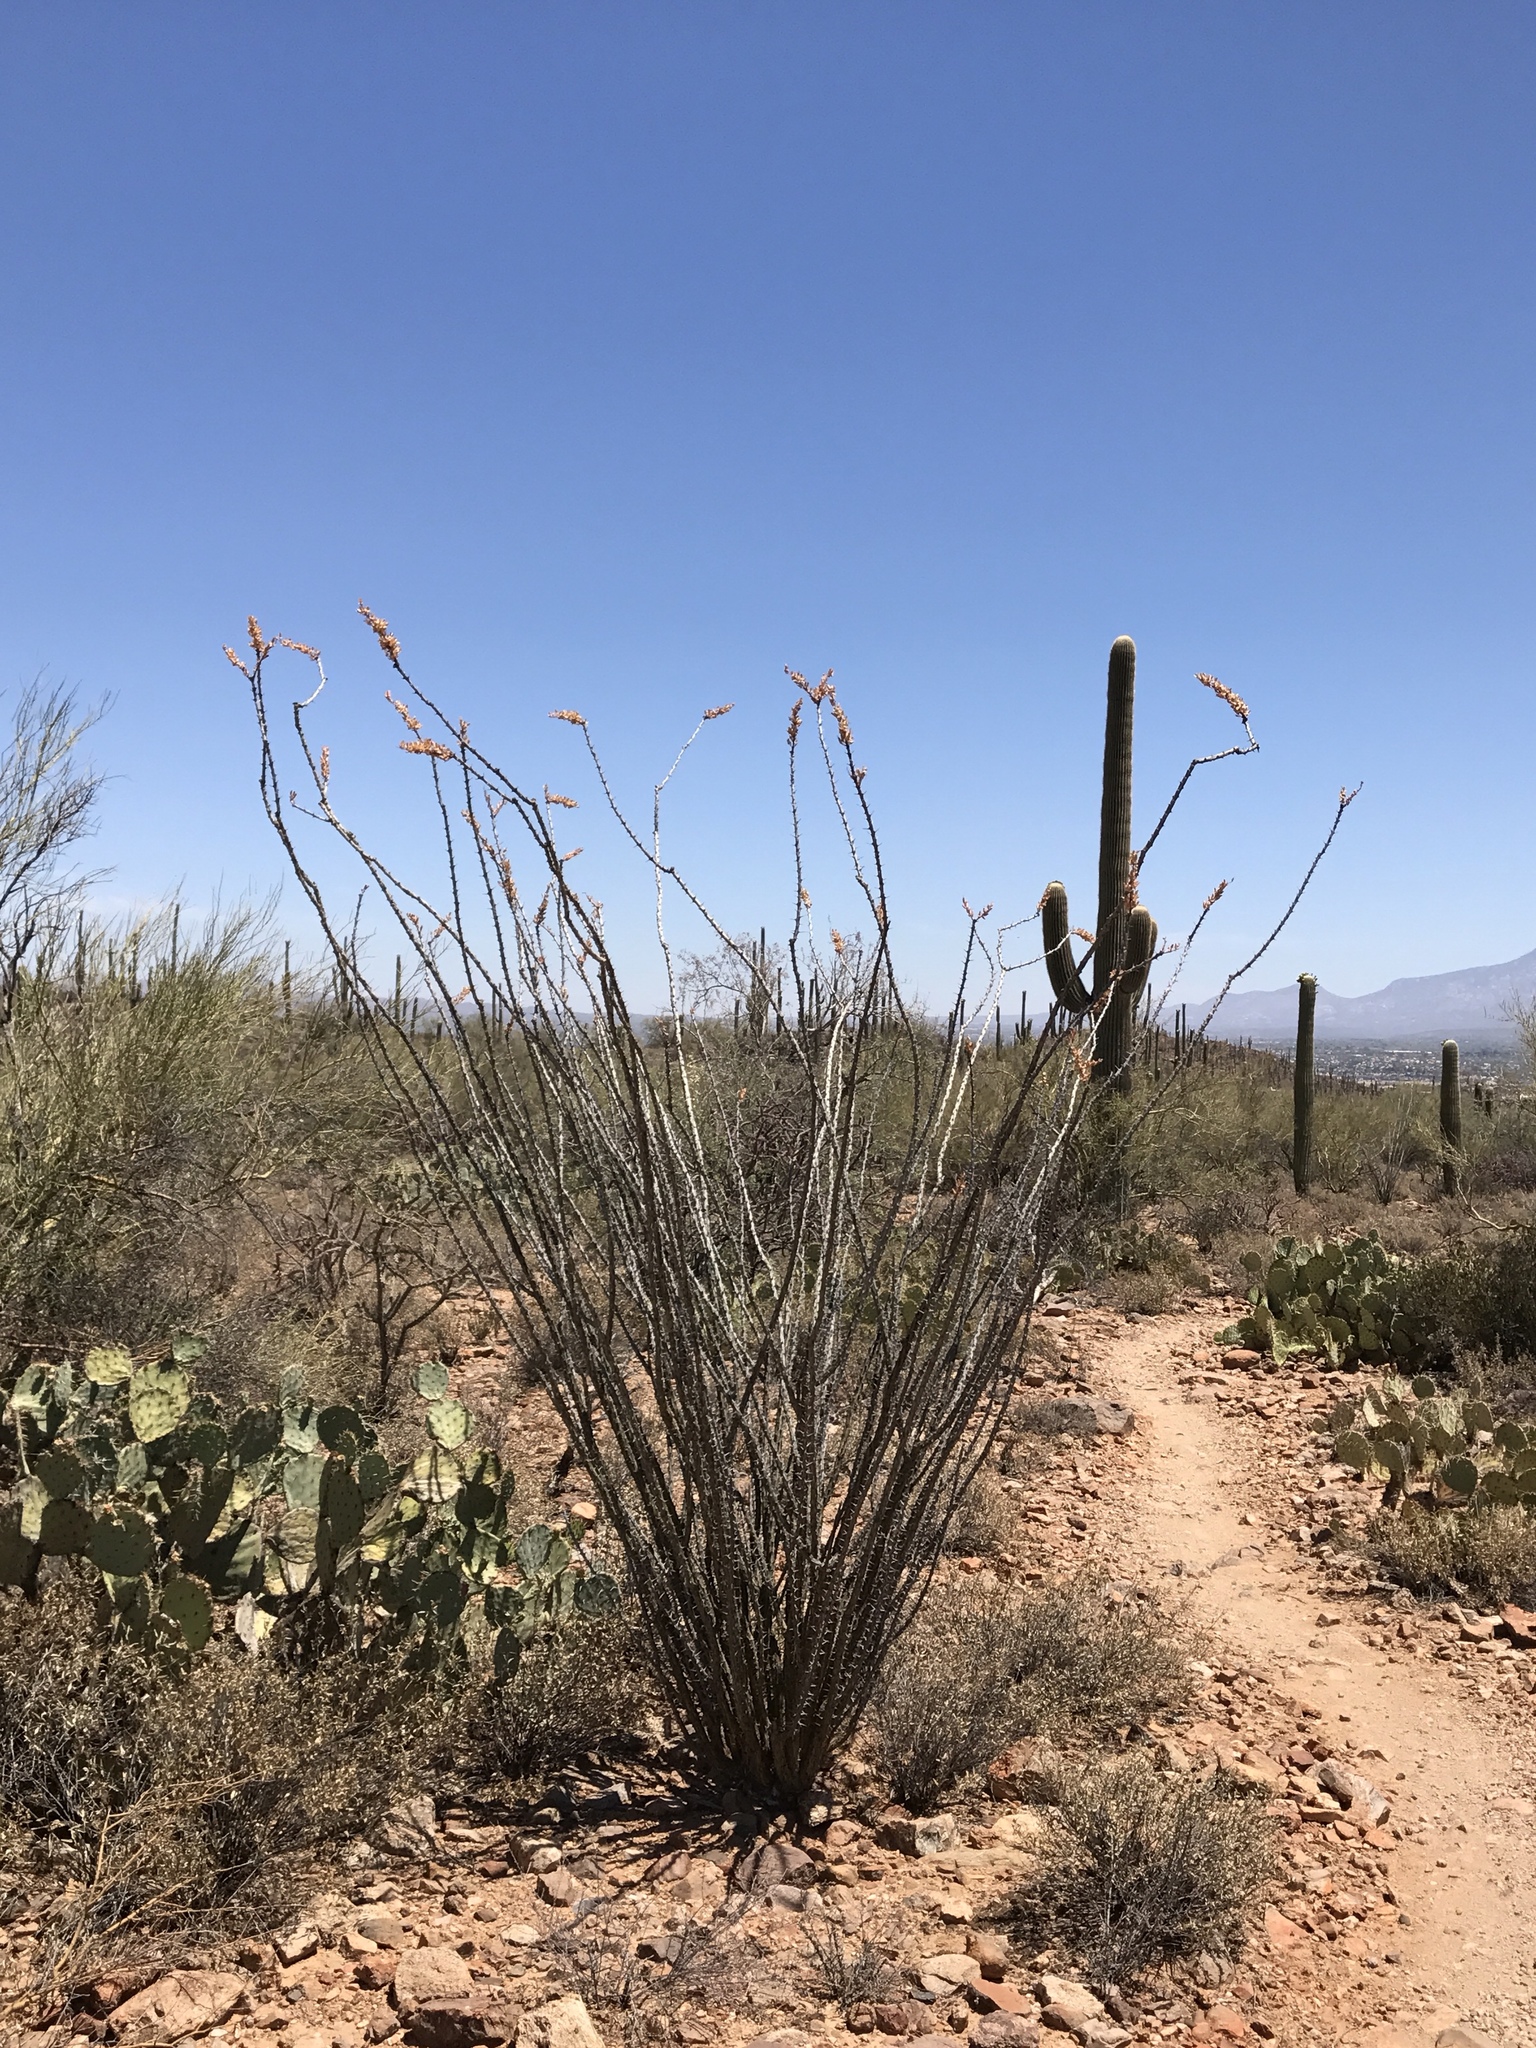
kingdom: Plantae
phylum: Tracheophyta
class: Magnoliopsida
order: Ericales
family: Fouquieriaceae
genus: Fouquieria
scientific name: Fouquieria splendens
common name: Vine-cactus
